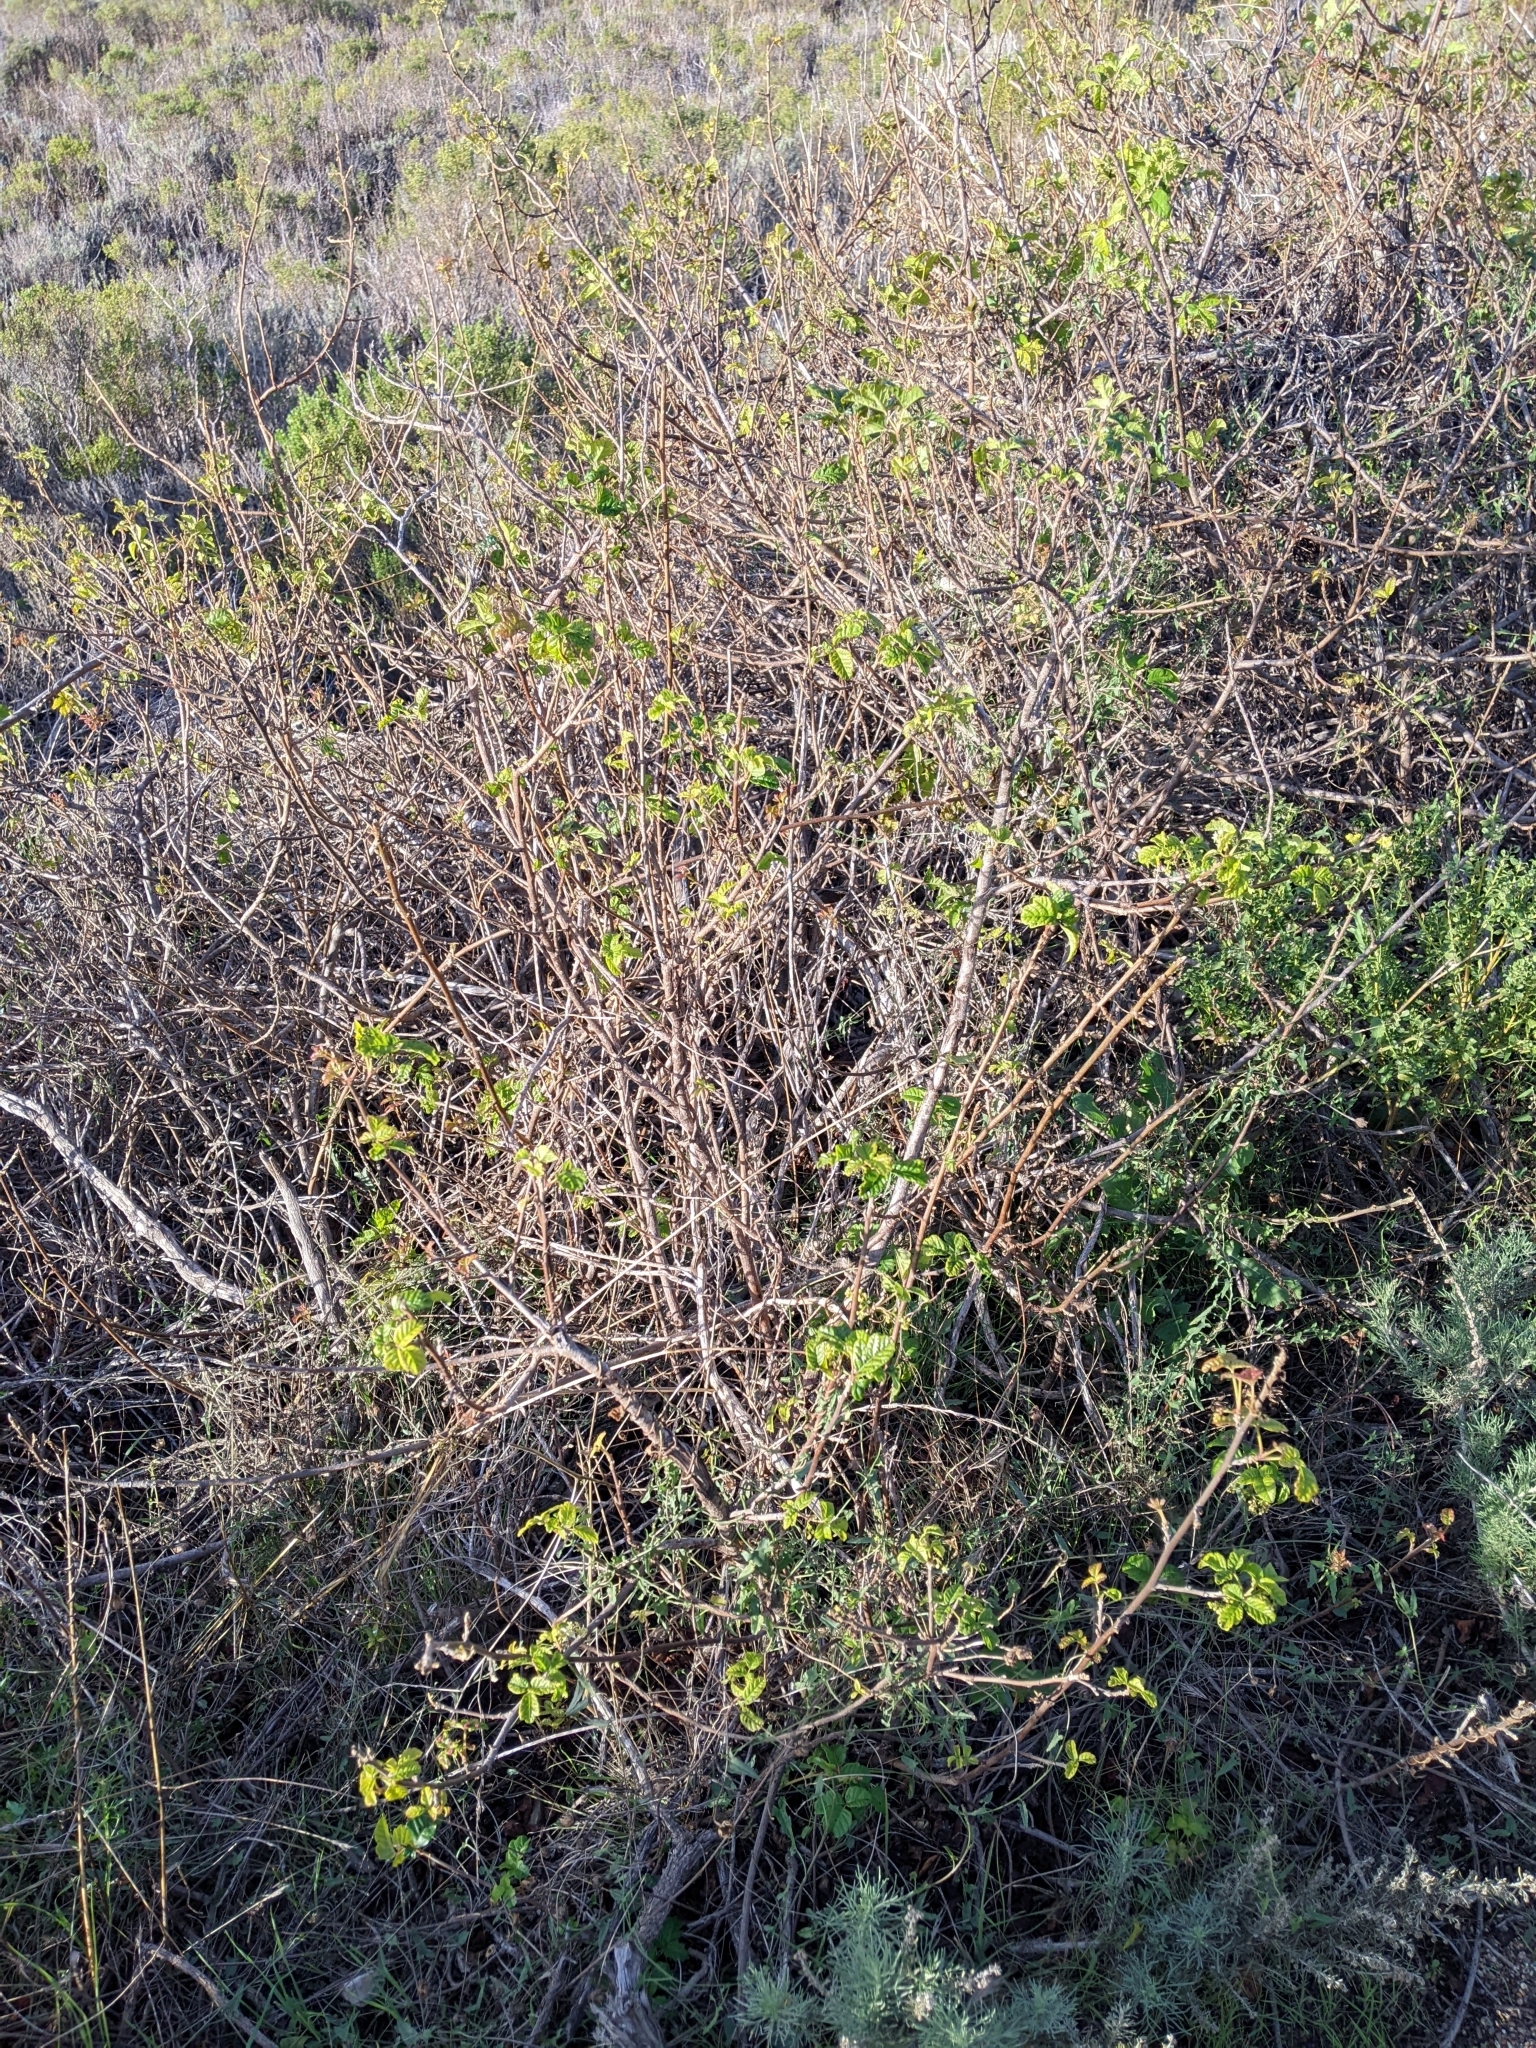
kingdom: Plantae
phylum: Tracheophyta
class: Magnoliopsida
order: Sapindales
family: Anacardiaceae
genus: Toxicodendron
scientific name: Toxicodendron diversilobum
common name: Pacific poison-oak
